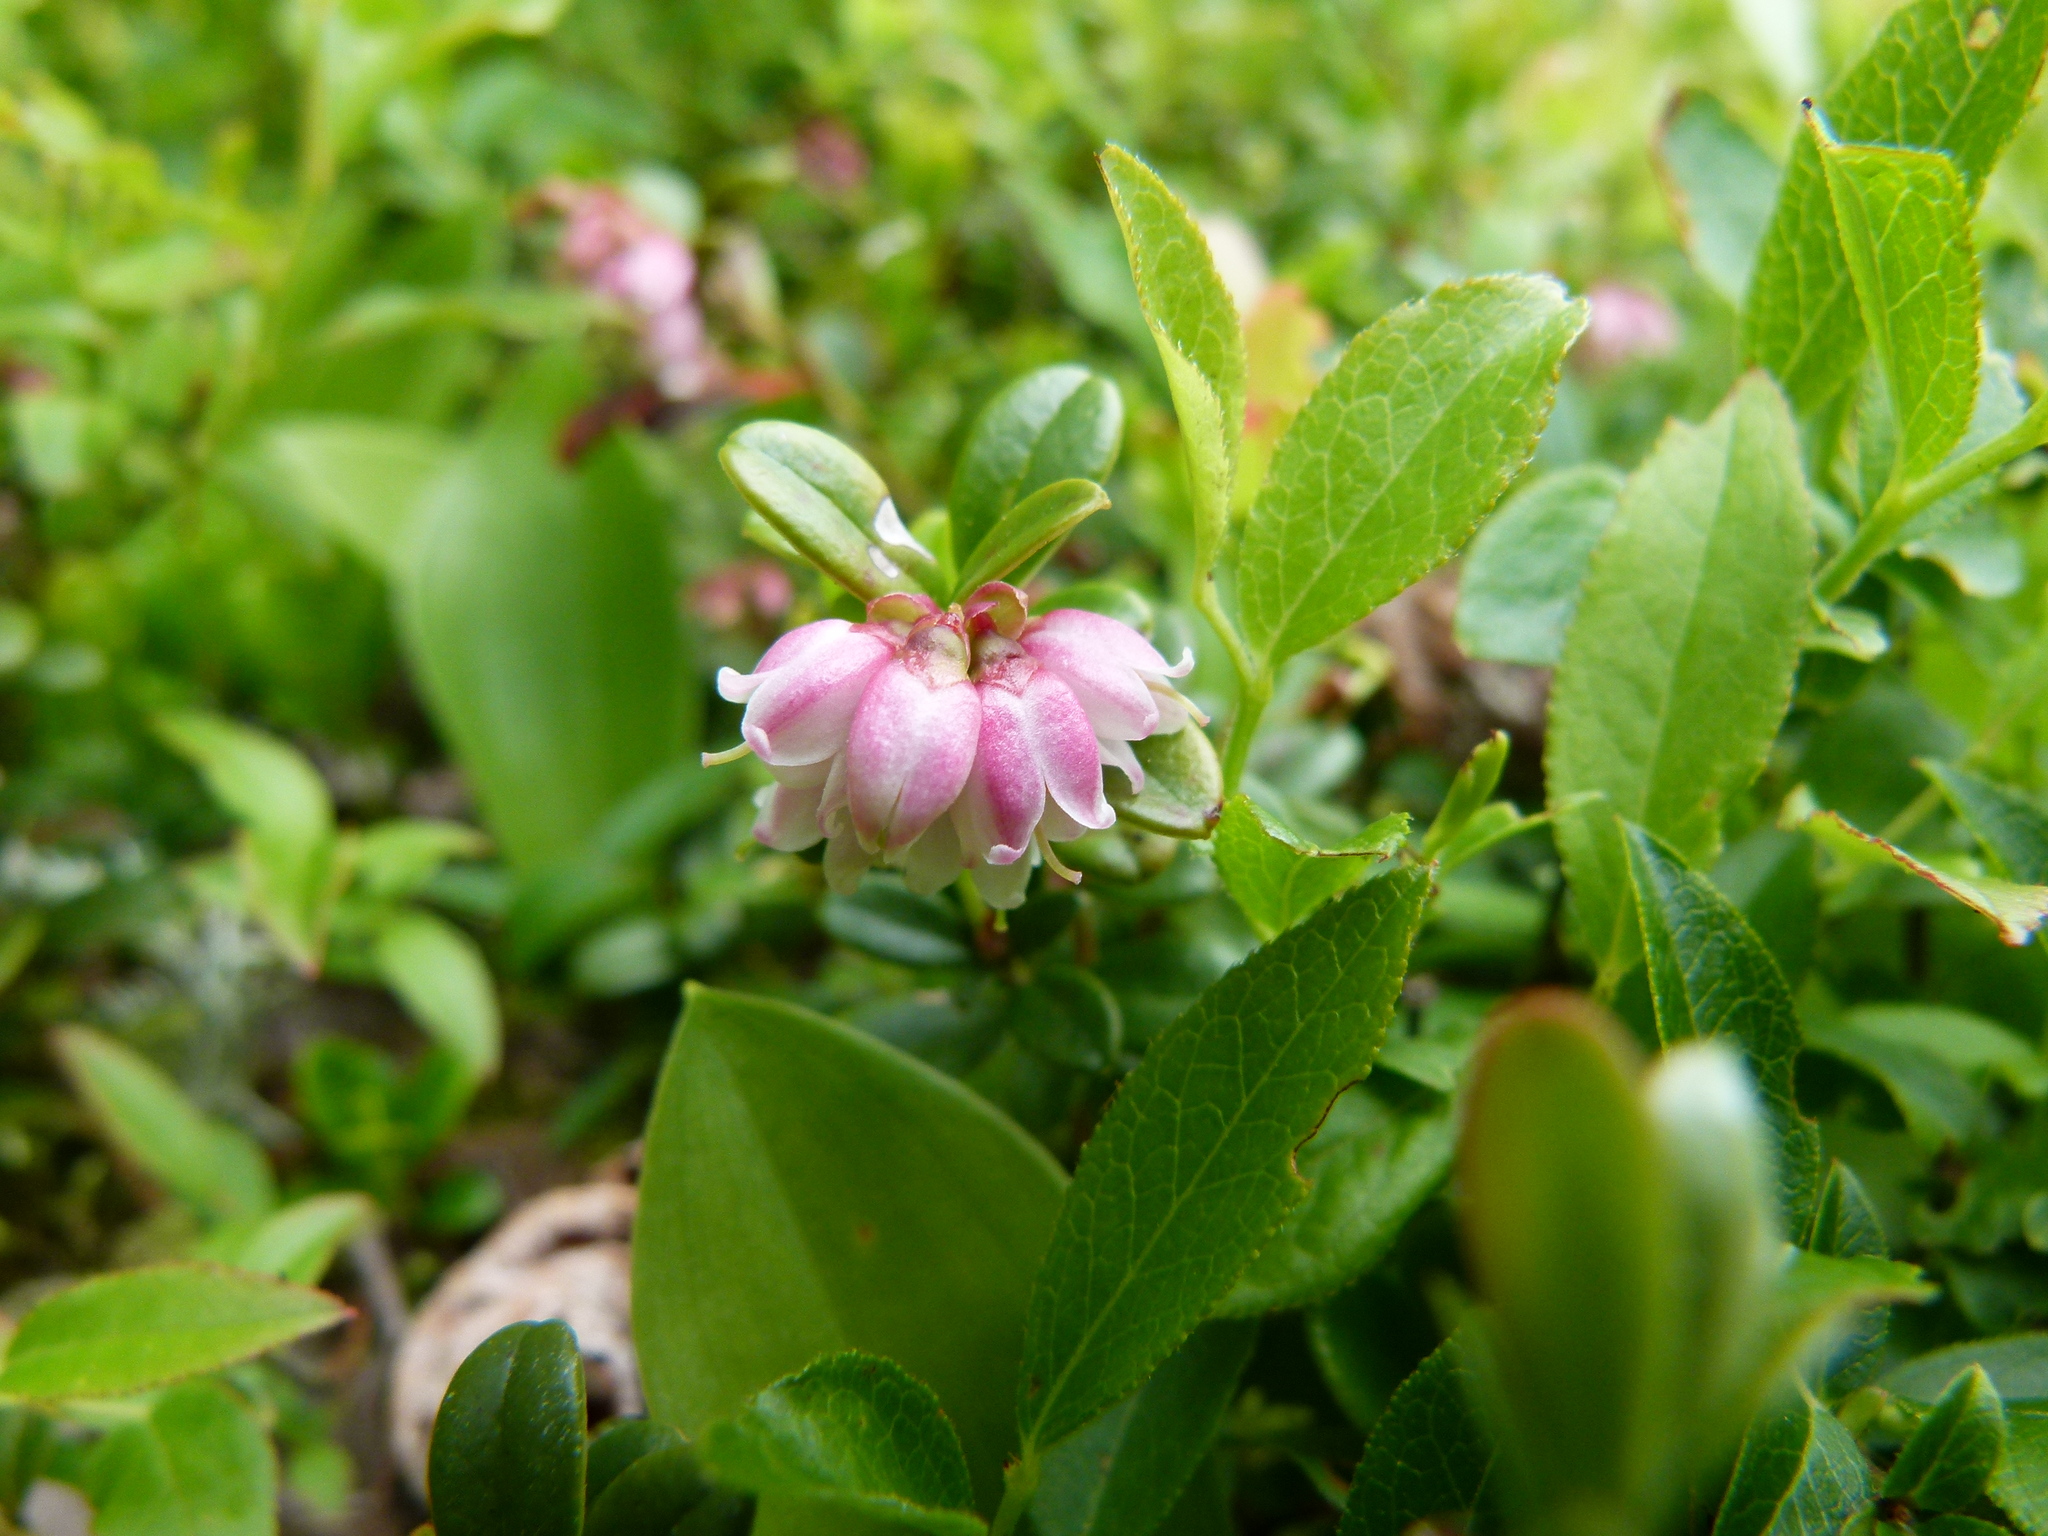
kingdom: Plantae
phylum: Tracheophyta
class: Magnoliopsida
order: Ericales
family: Ericaceae
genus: Vaccinium
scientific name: Vaccinium vitis-idaea
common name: Cowberry
